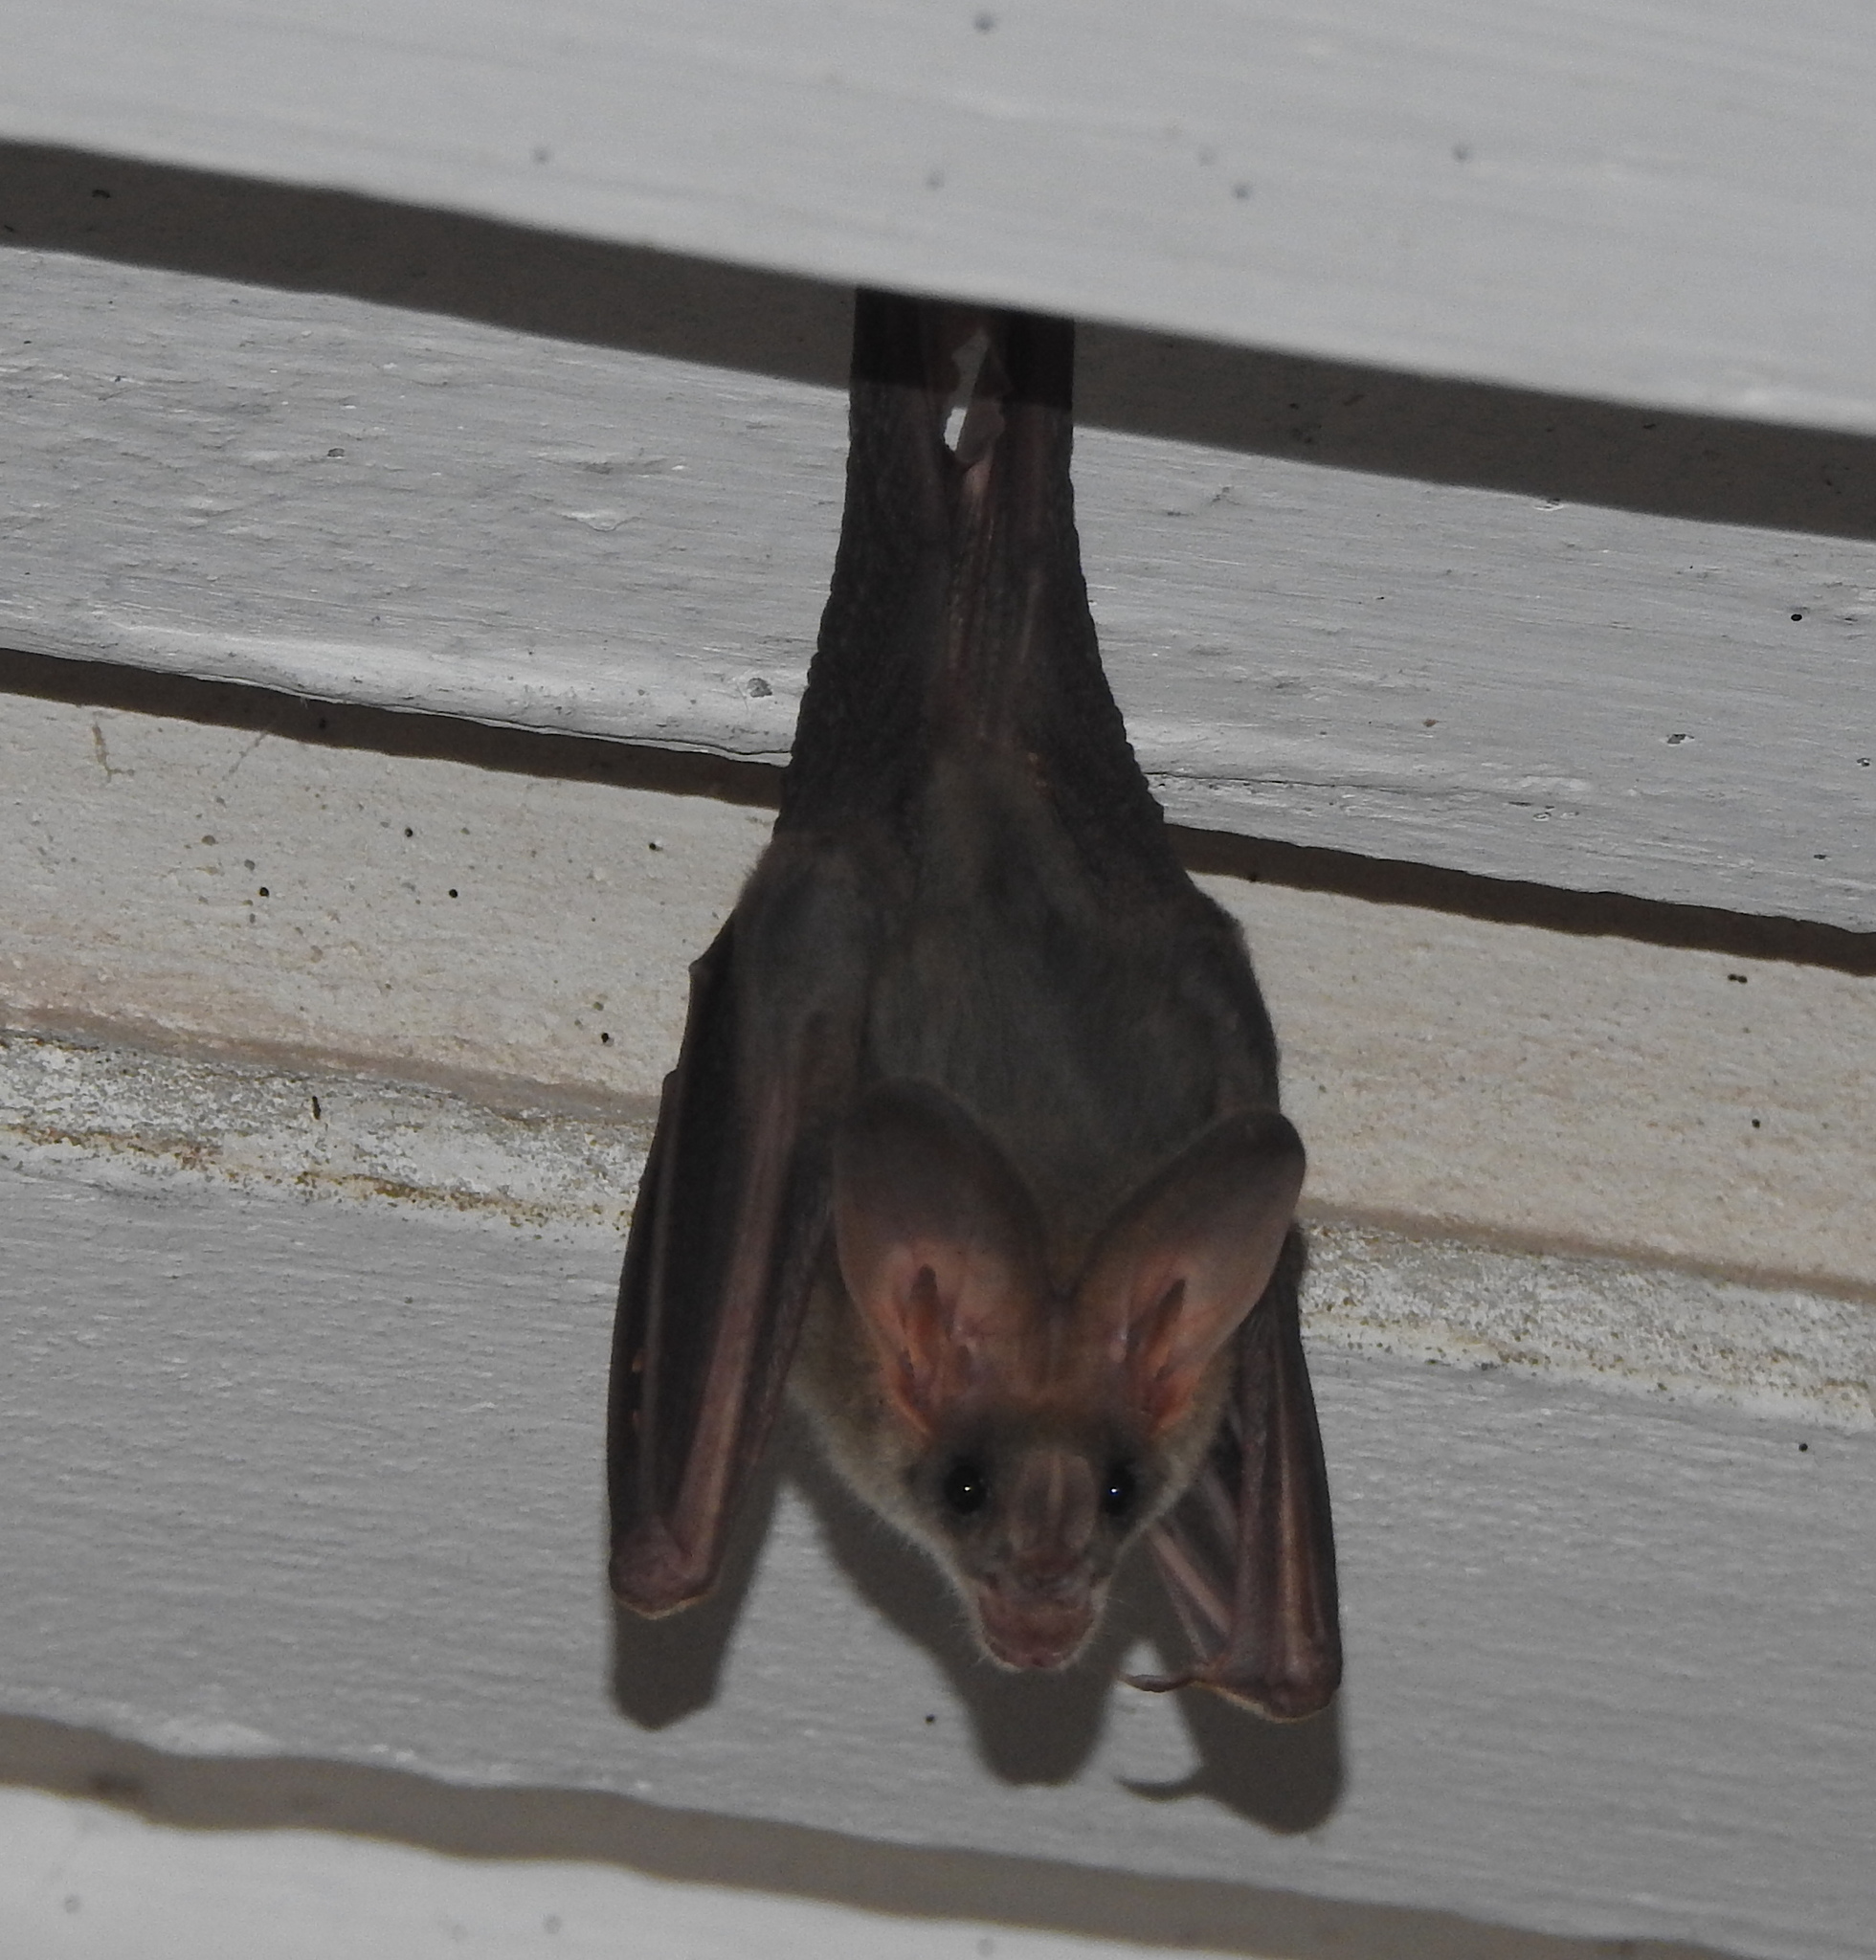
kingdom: Animalia
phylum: Chordata
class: Mammalia
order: Chiroptera
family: Megadermatidae
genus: Lyroderma
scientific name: Lyroderma lyra
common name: Greater false vampire bat
